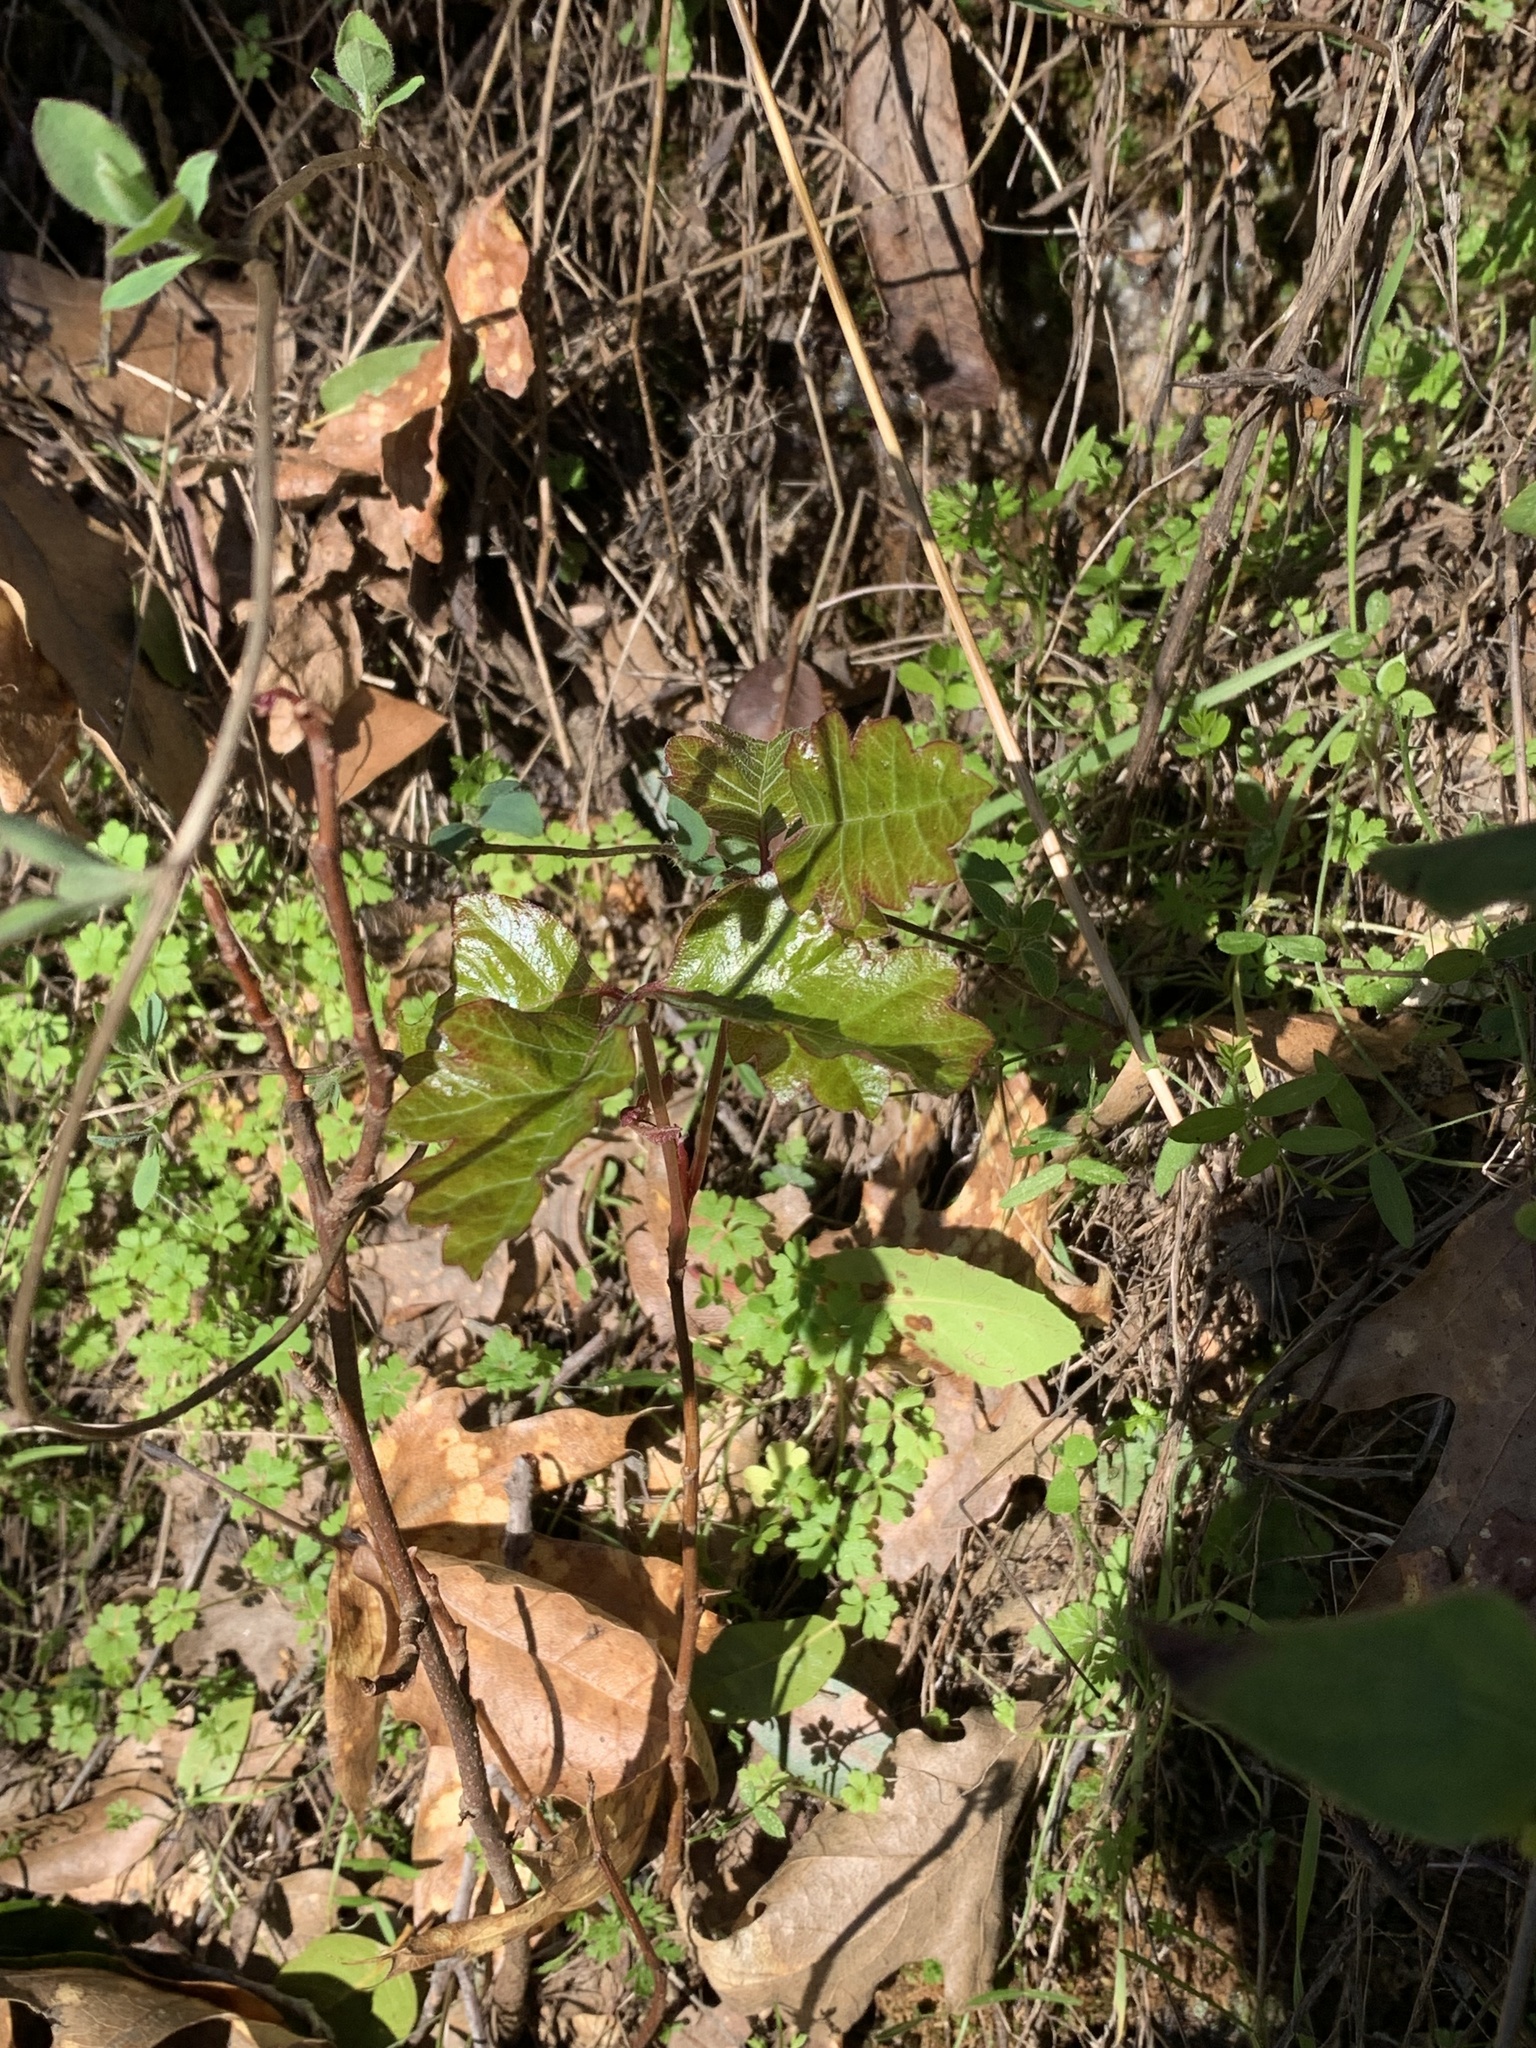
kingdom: Plantae
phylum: Tracheophyta
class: Magnoliopsida
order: Sapindales
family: Anacardiaceae
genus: Toxicodendron
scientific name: Toxicodendron diversilobum
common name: Pacific poison-oak
